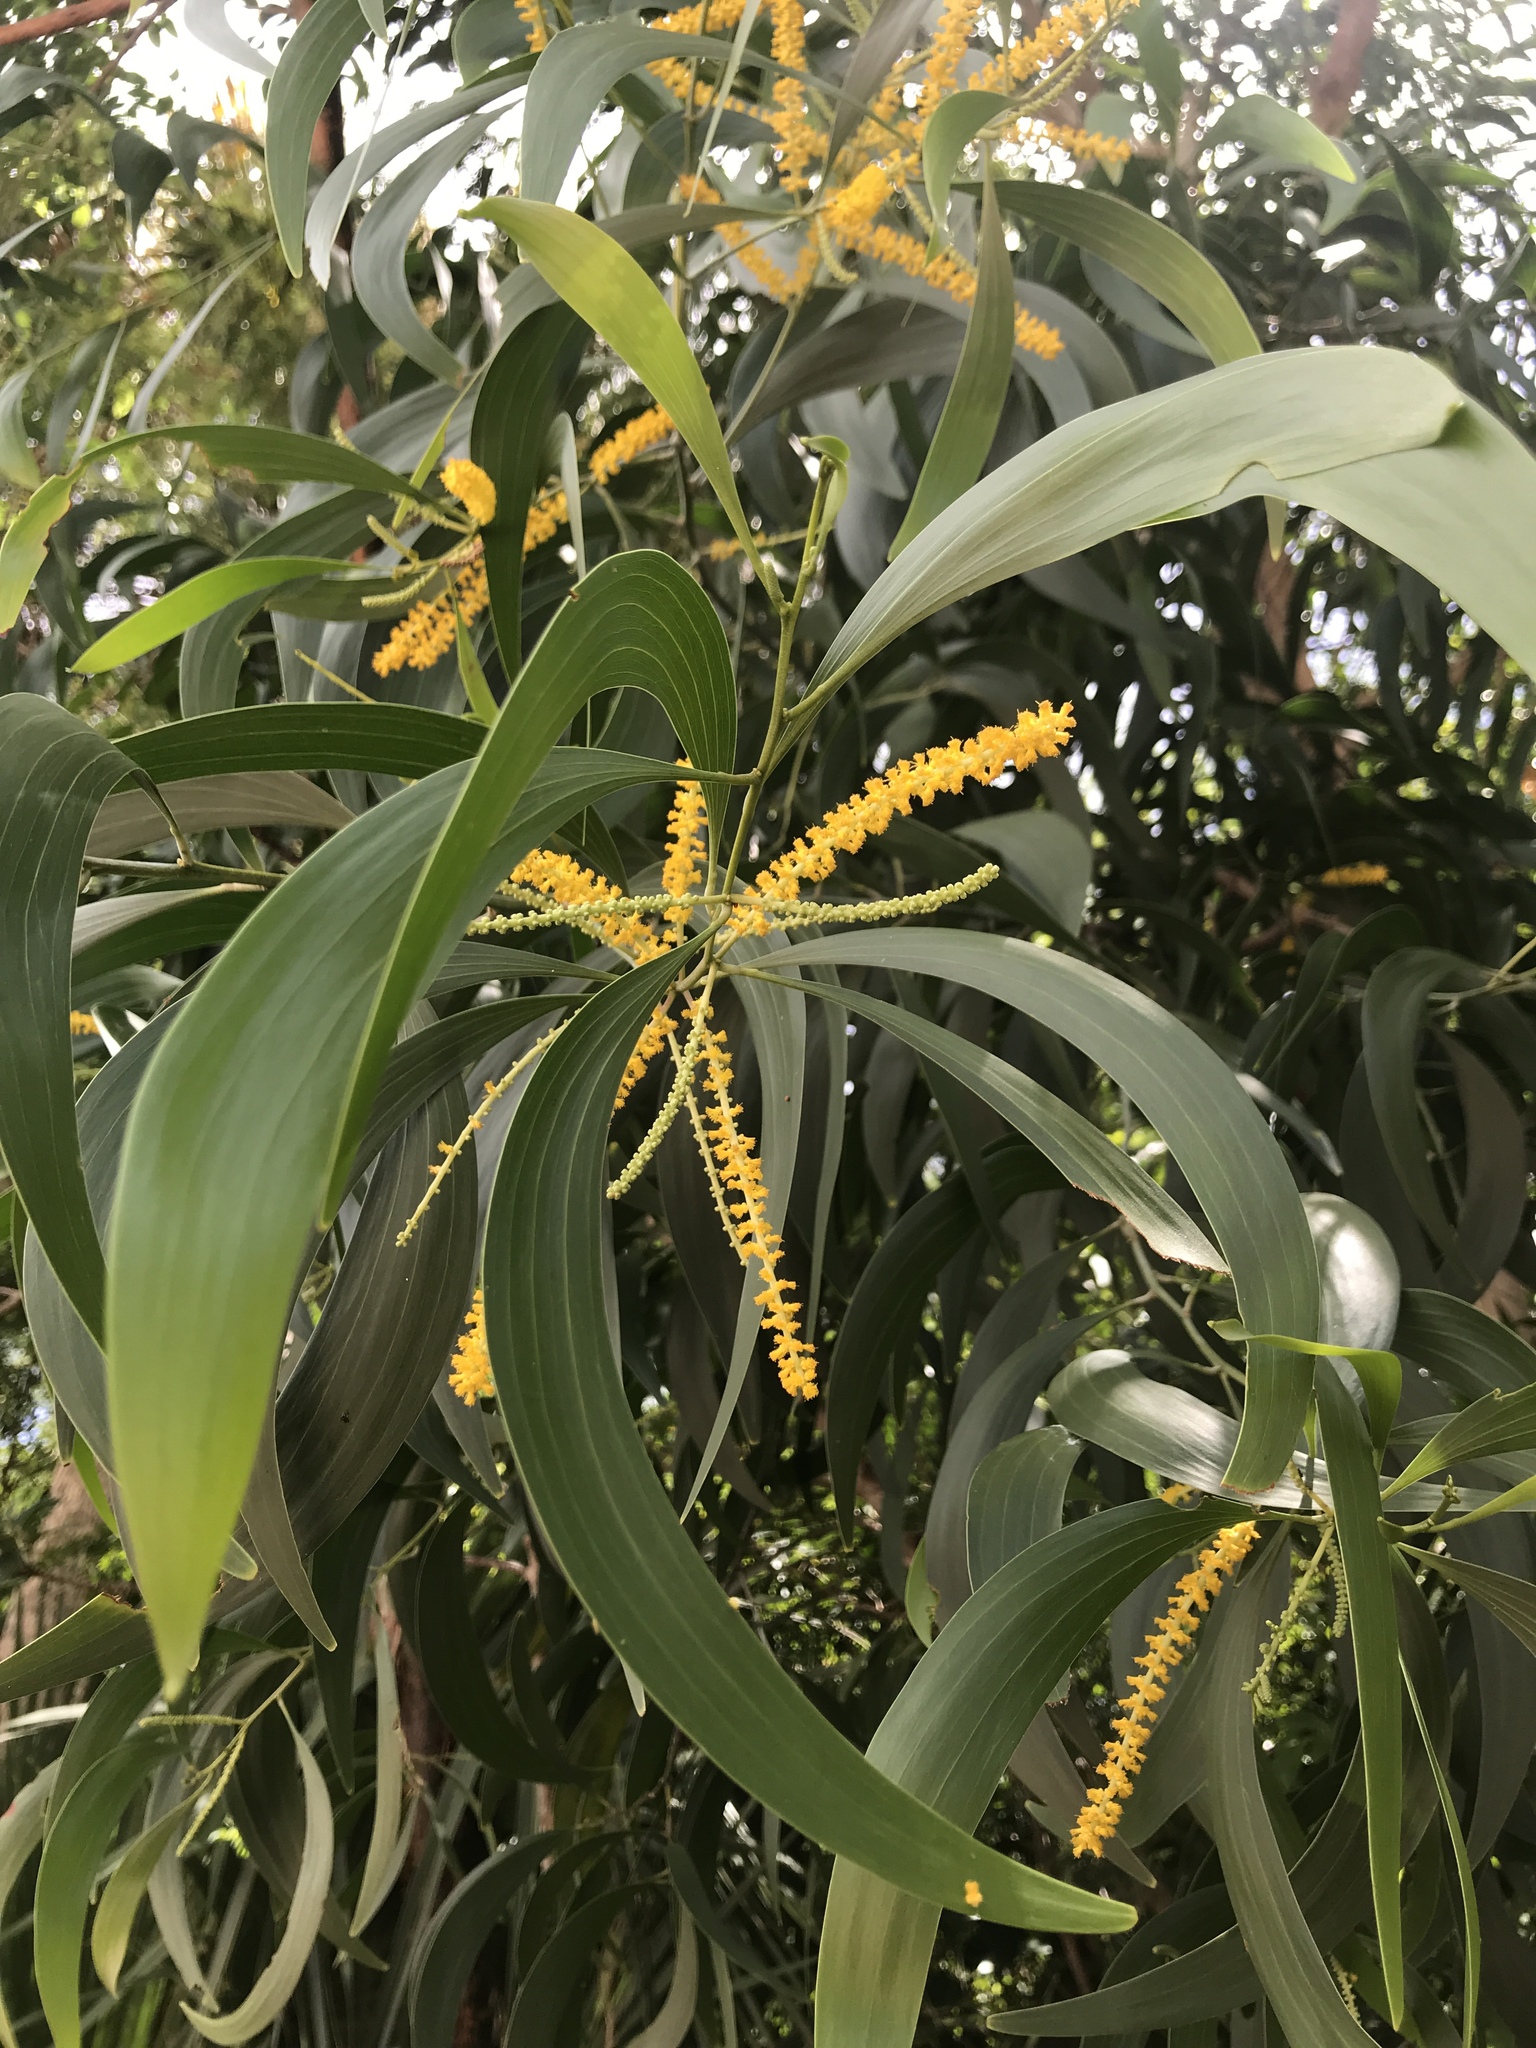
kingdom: Plantae
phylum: Tracheophyta
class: Magnoliopsida
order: Fabales
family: Fabaceae
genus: Acacia
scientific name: Acacia auriculiformis
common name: Earleaf acacia
